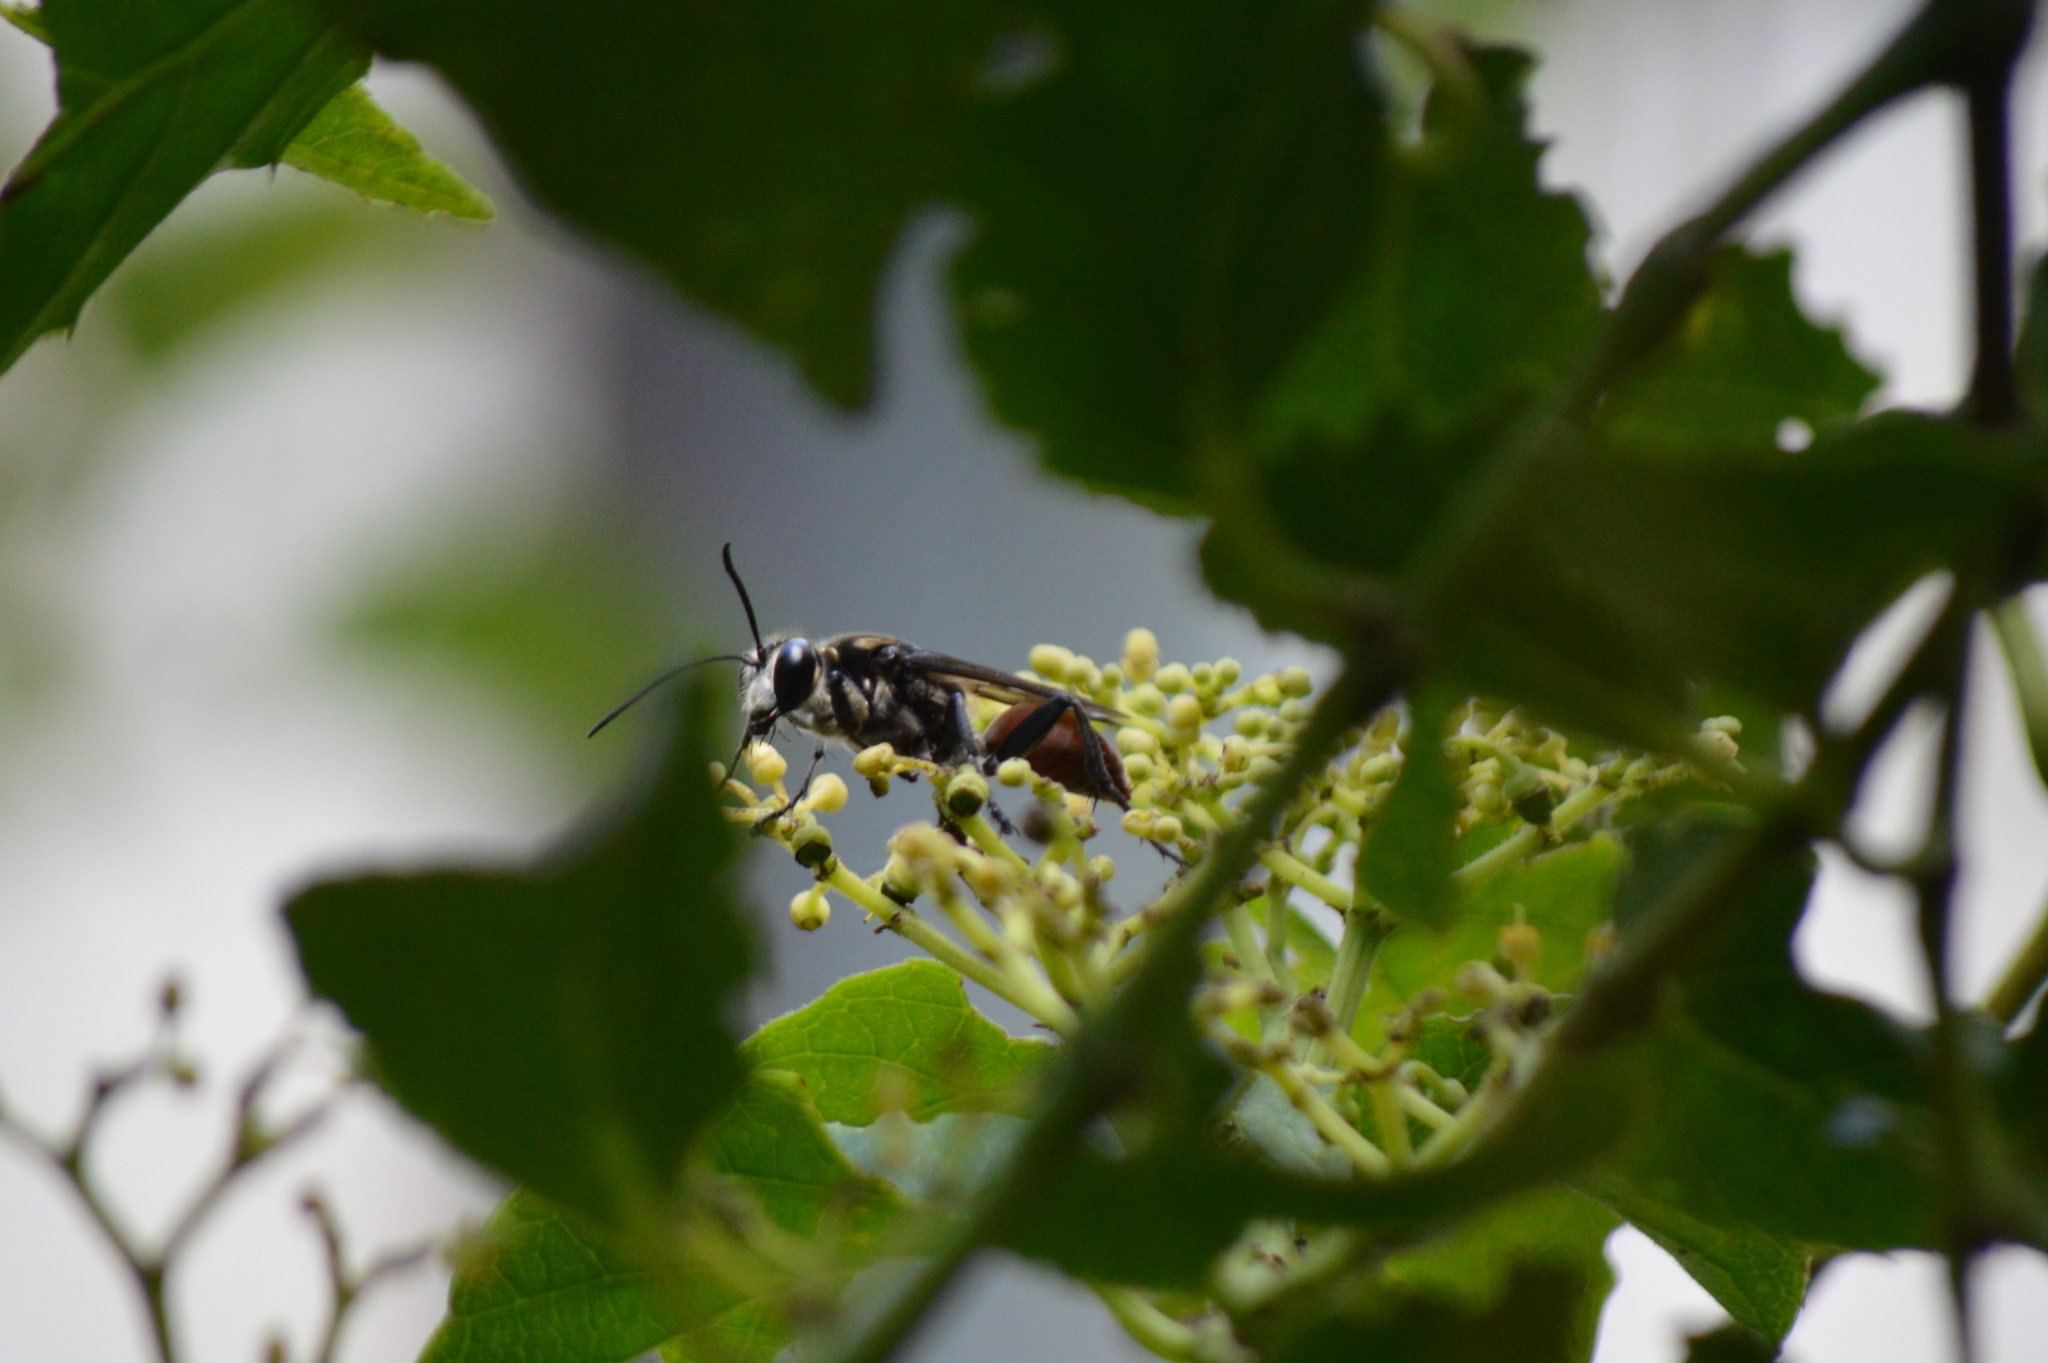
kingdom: Animalia
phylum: Arthropoda
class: Insecta
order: Hymenoptera
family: Sphecidae
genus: Sphex
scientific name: Sphex melanopus
